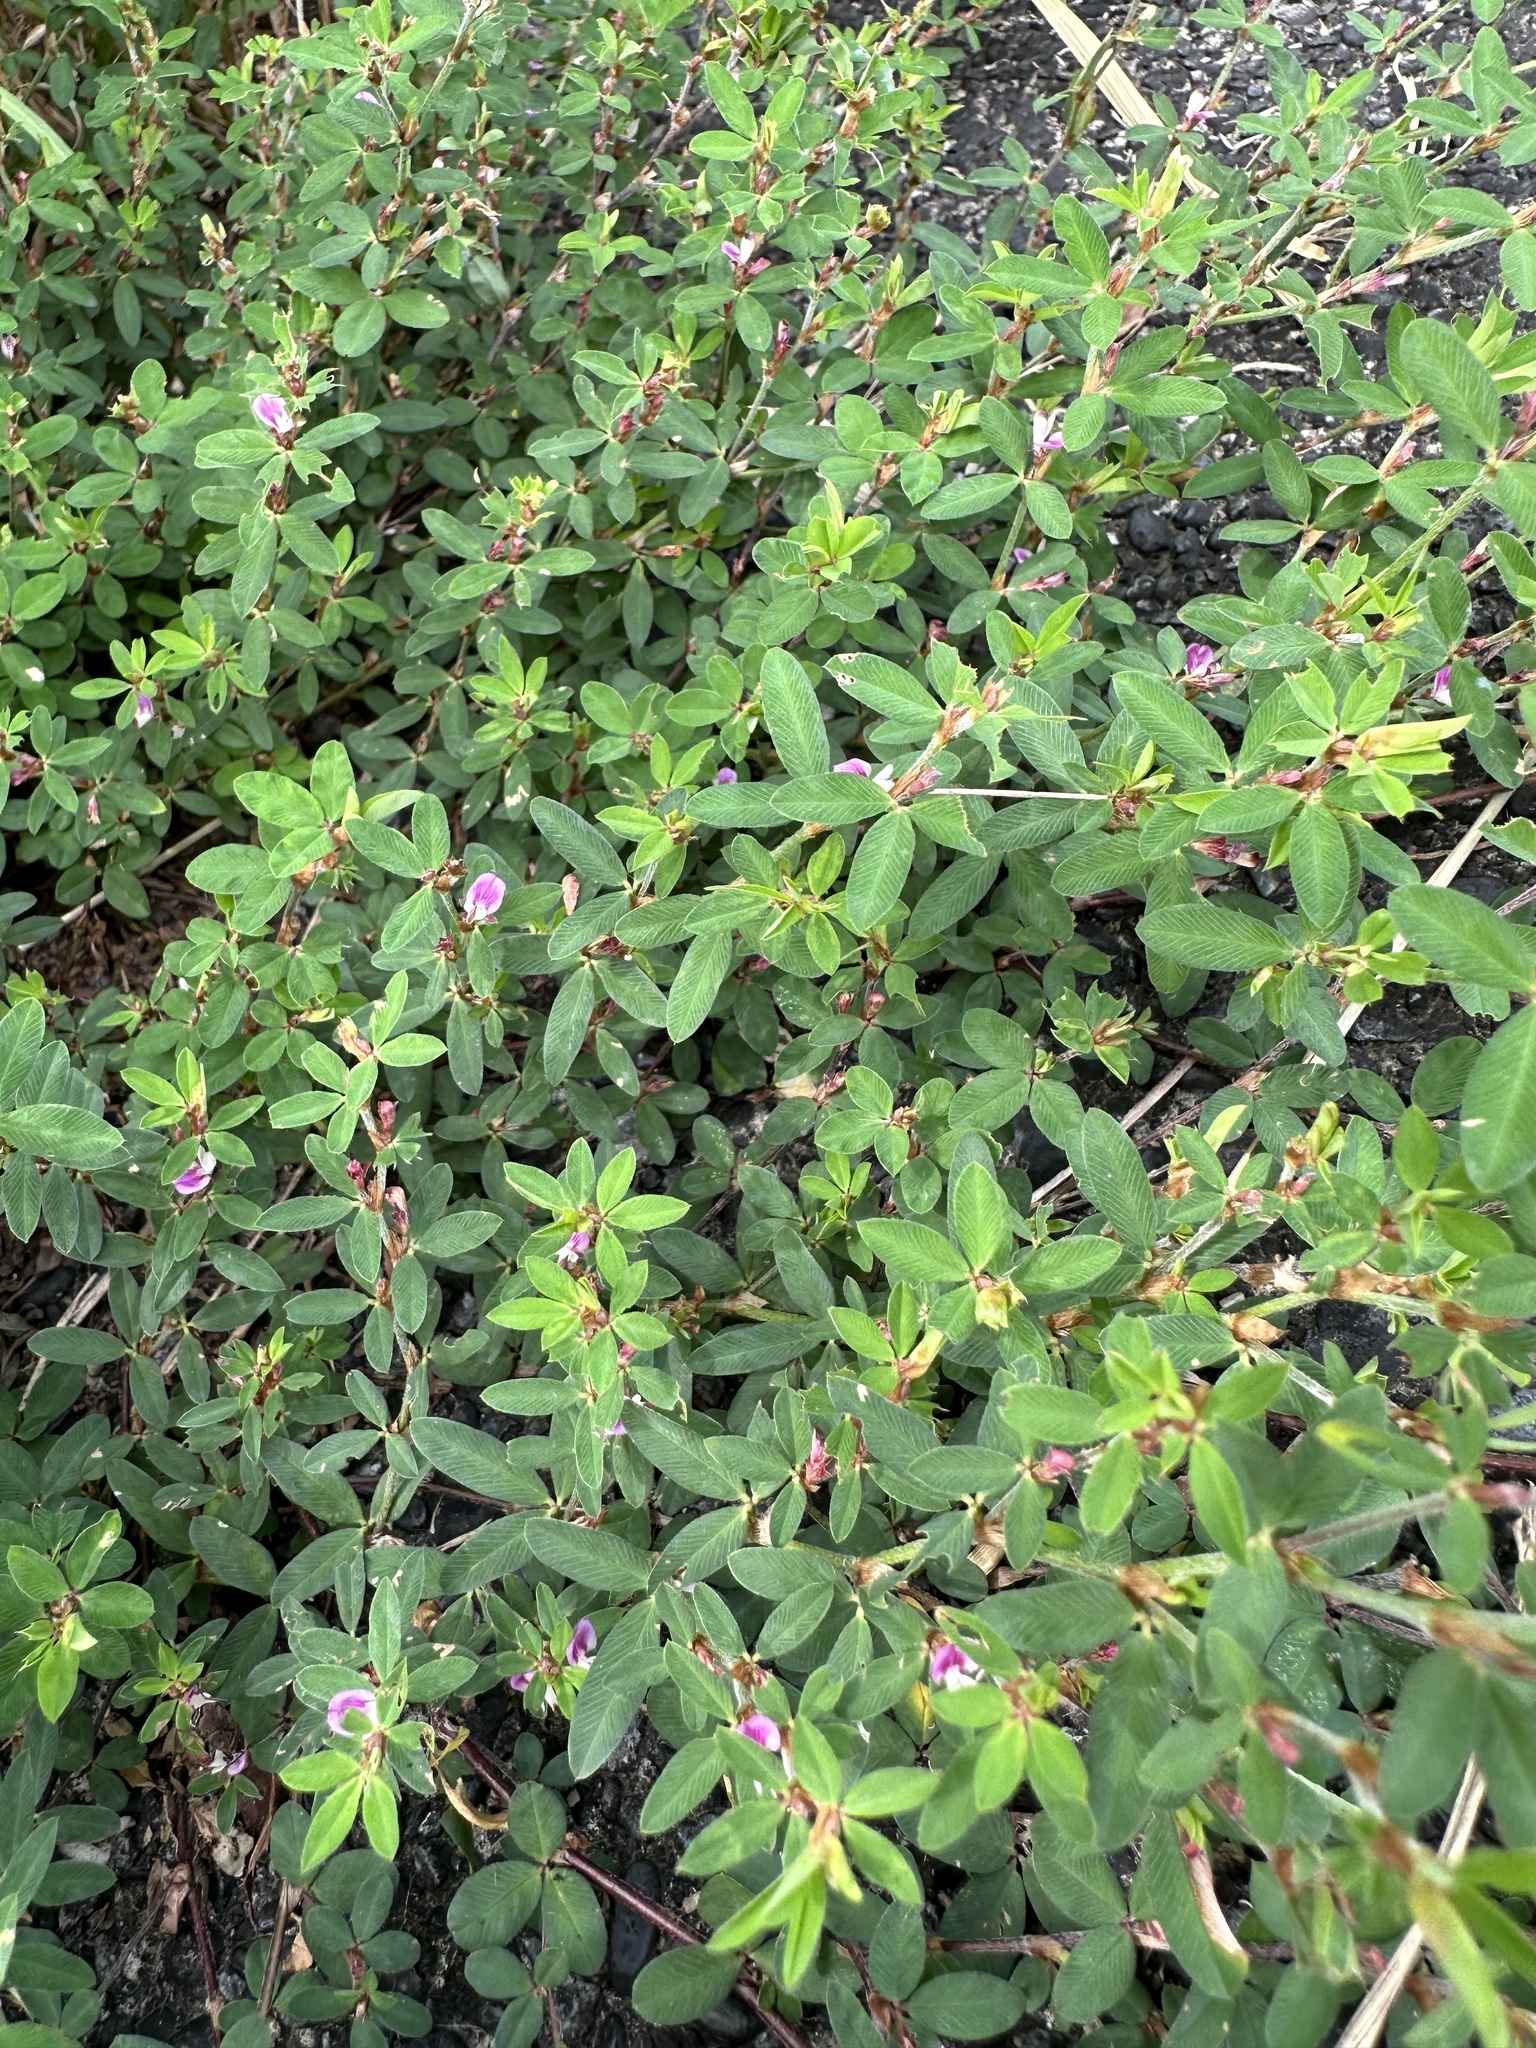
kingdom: Plantae
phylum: Tracheophyta
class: Magnoliopsida
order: Fabales
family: Fabaceae
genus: Kummerowia
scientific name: Kummerowia striata
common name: Japanese clover
